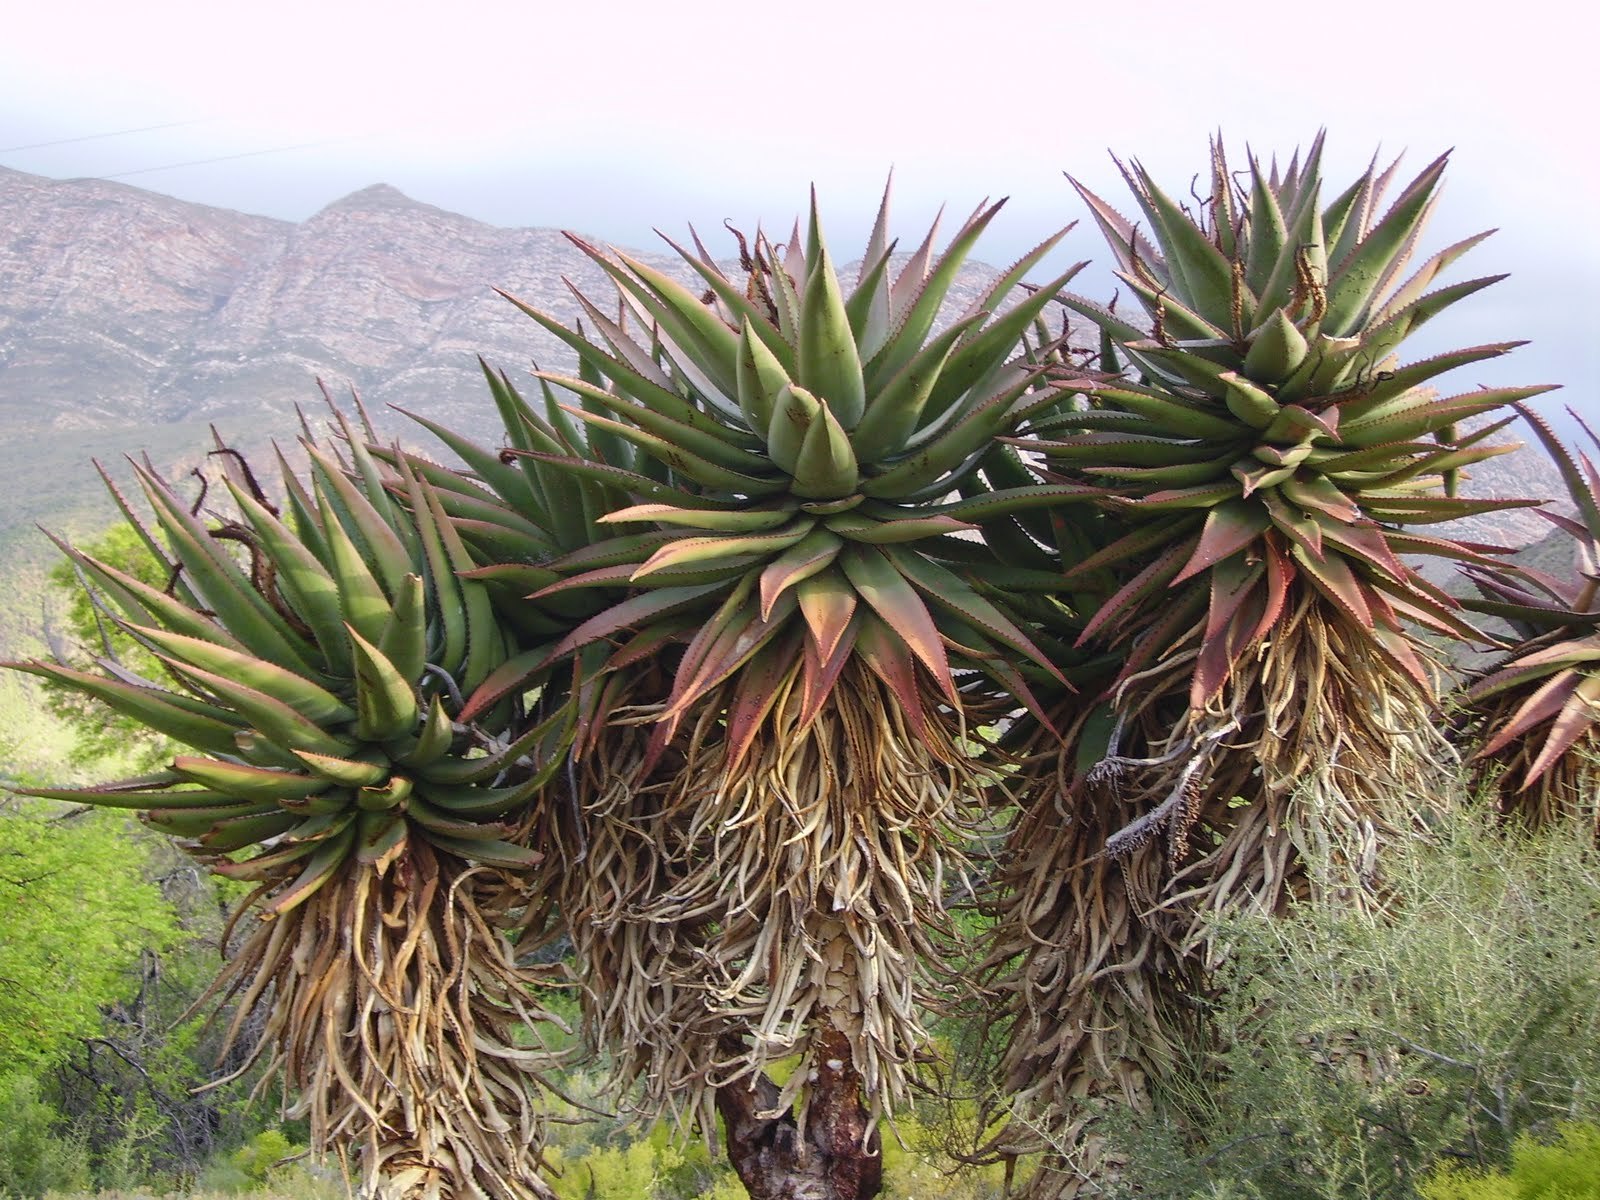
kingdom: Plantae
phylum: Tracheophyta
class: Liliopsida
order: Asparagales
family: Asphodelaceae
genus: Aloe
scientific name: Aloe ferox
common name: Bitter aloe
